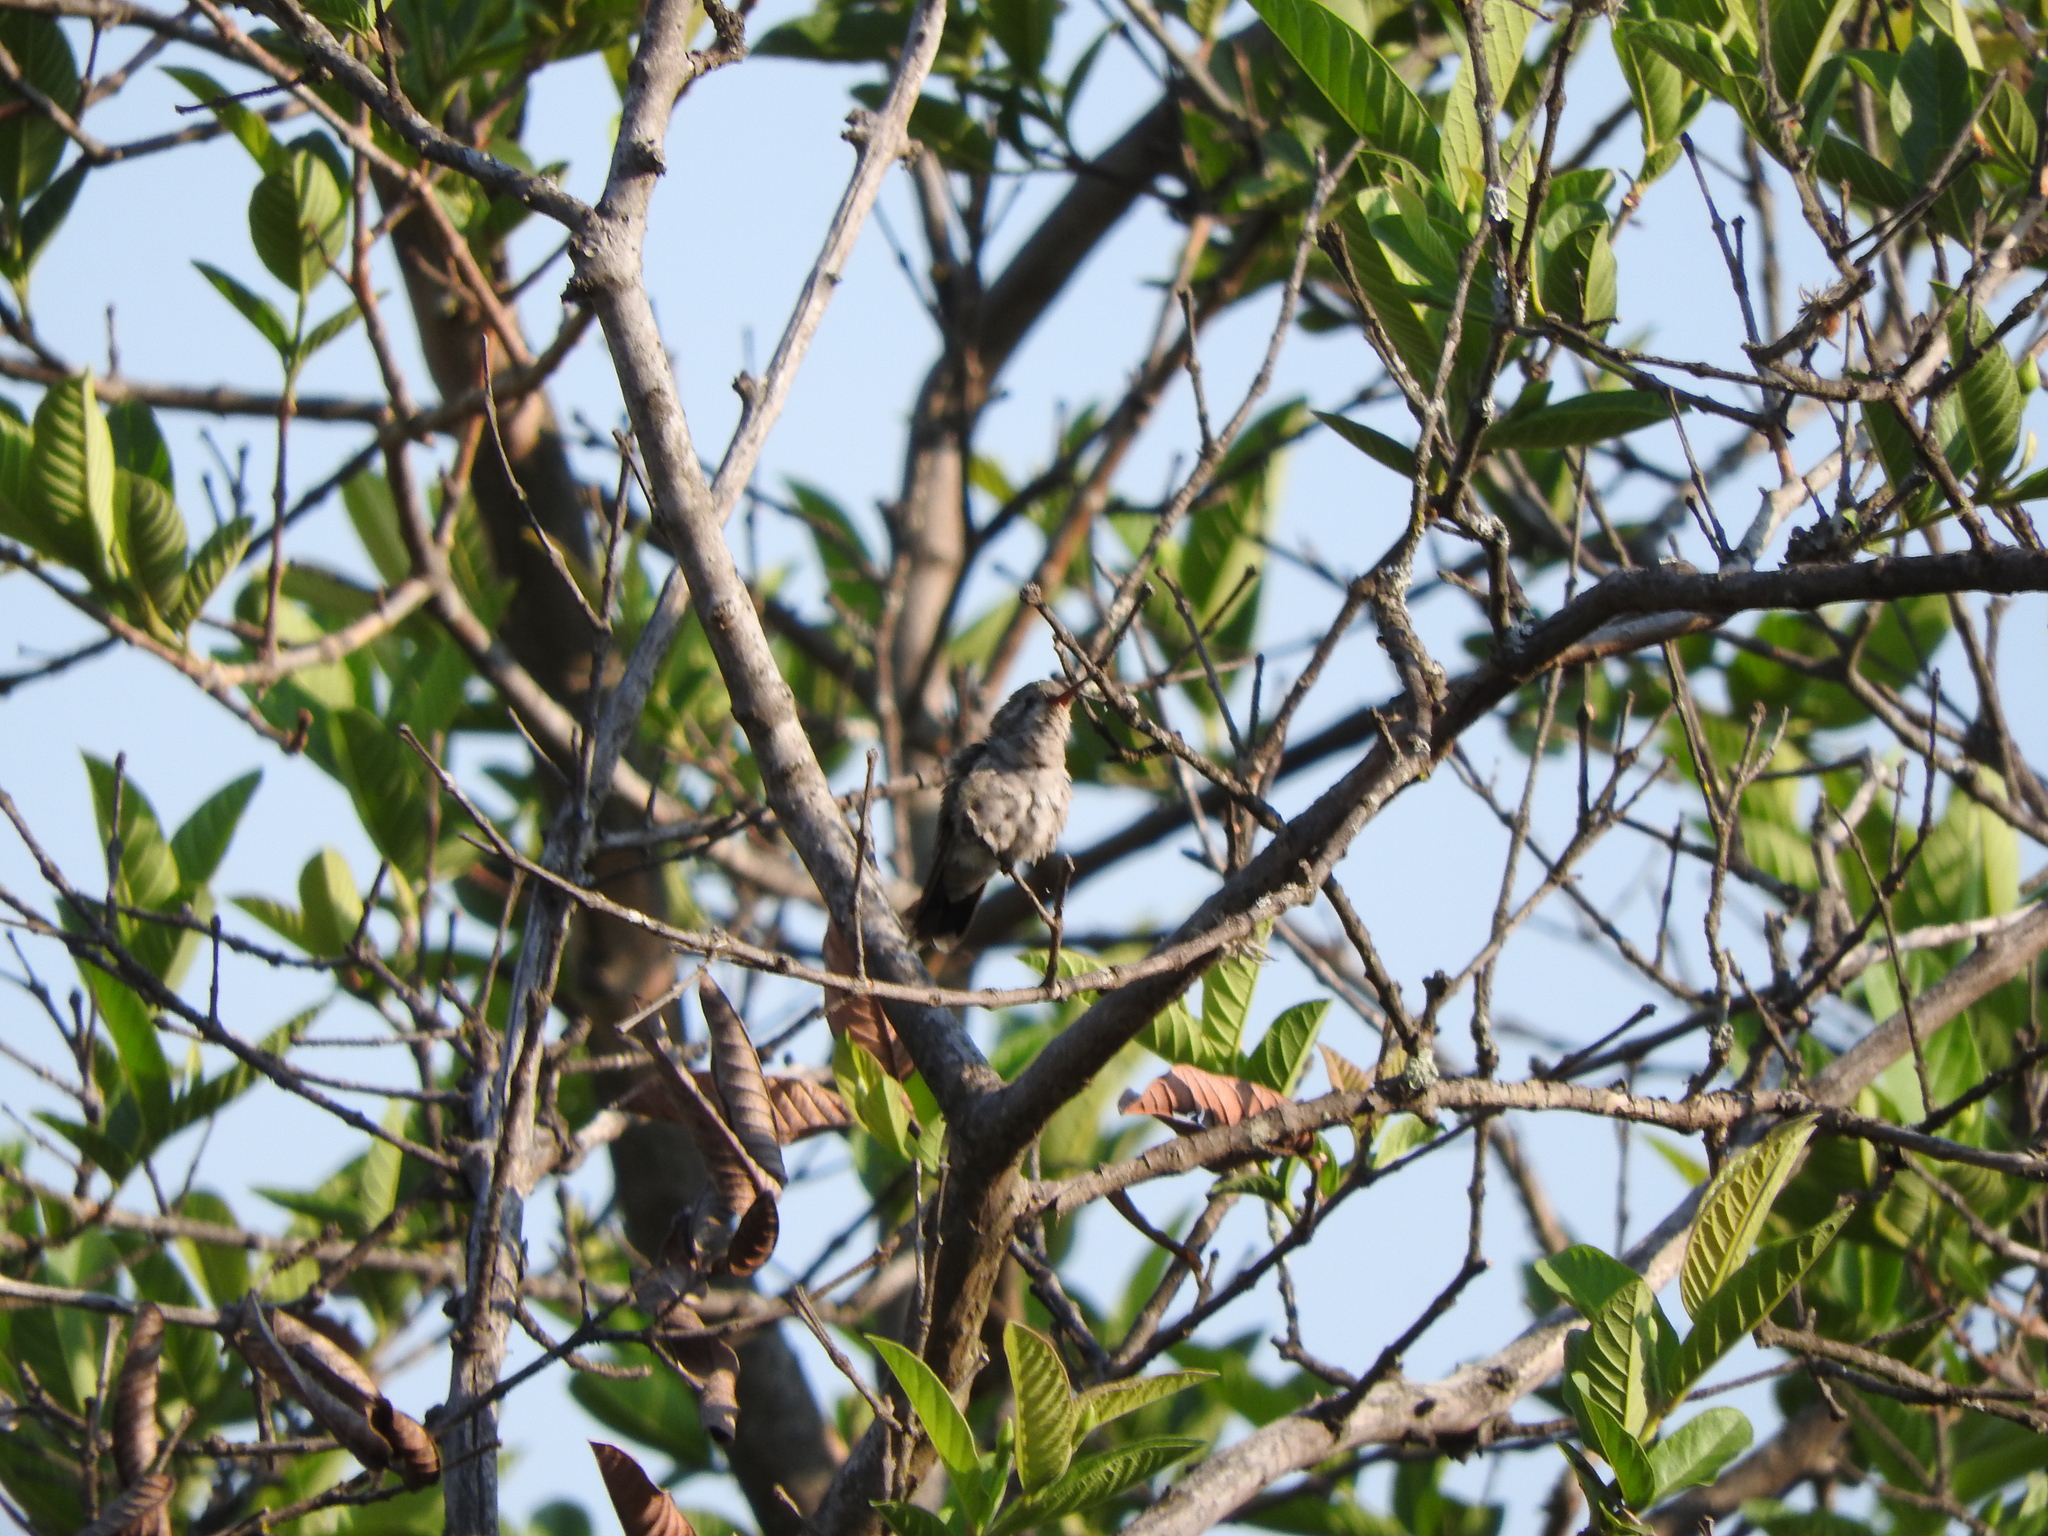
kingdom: Animalia
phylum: Chordata
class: Aves
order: Apodiformes
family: Trochilidae
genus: Cynanthus
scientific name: Cynanthus latirostris
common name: Broad-billed hummingbird
